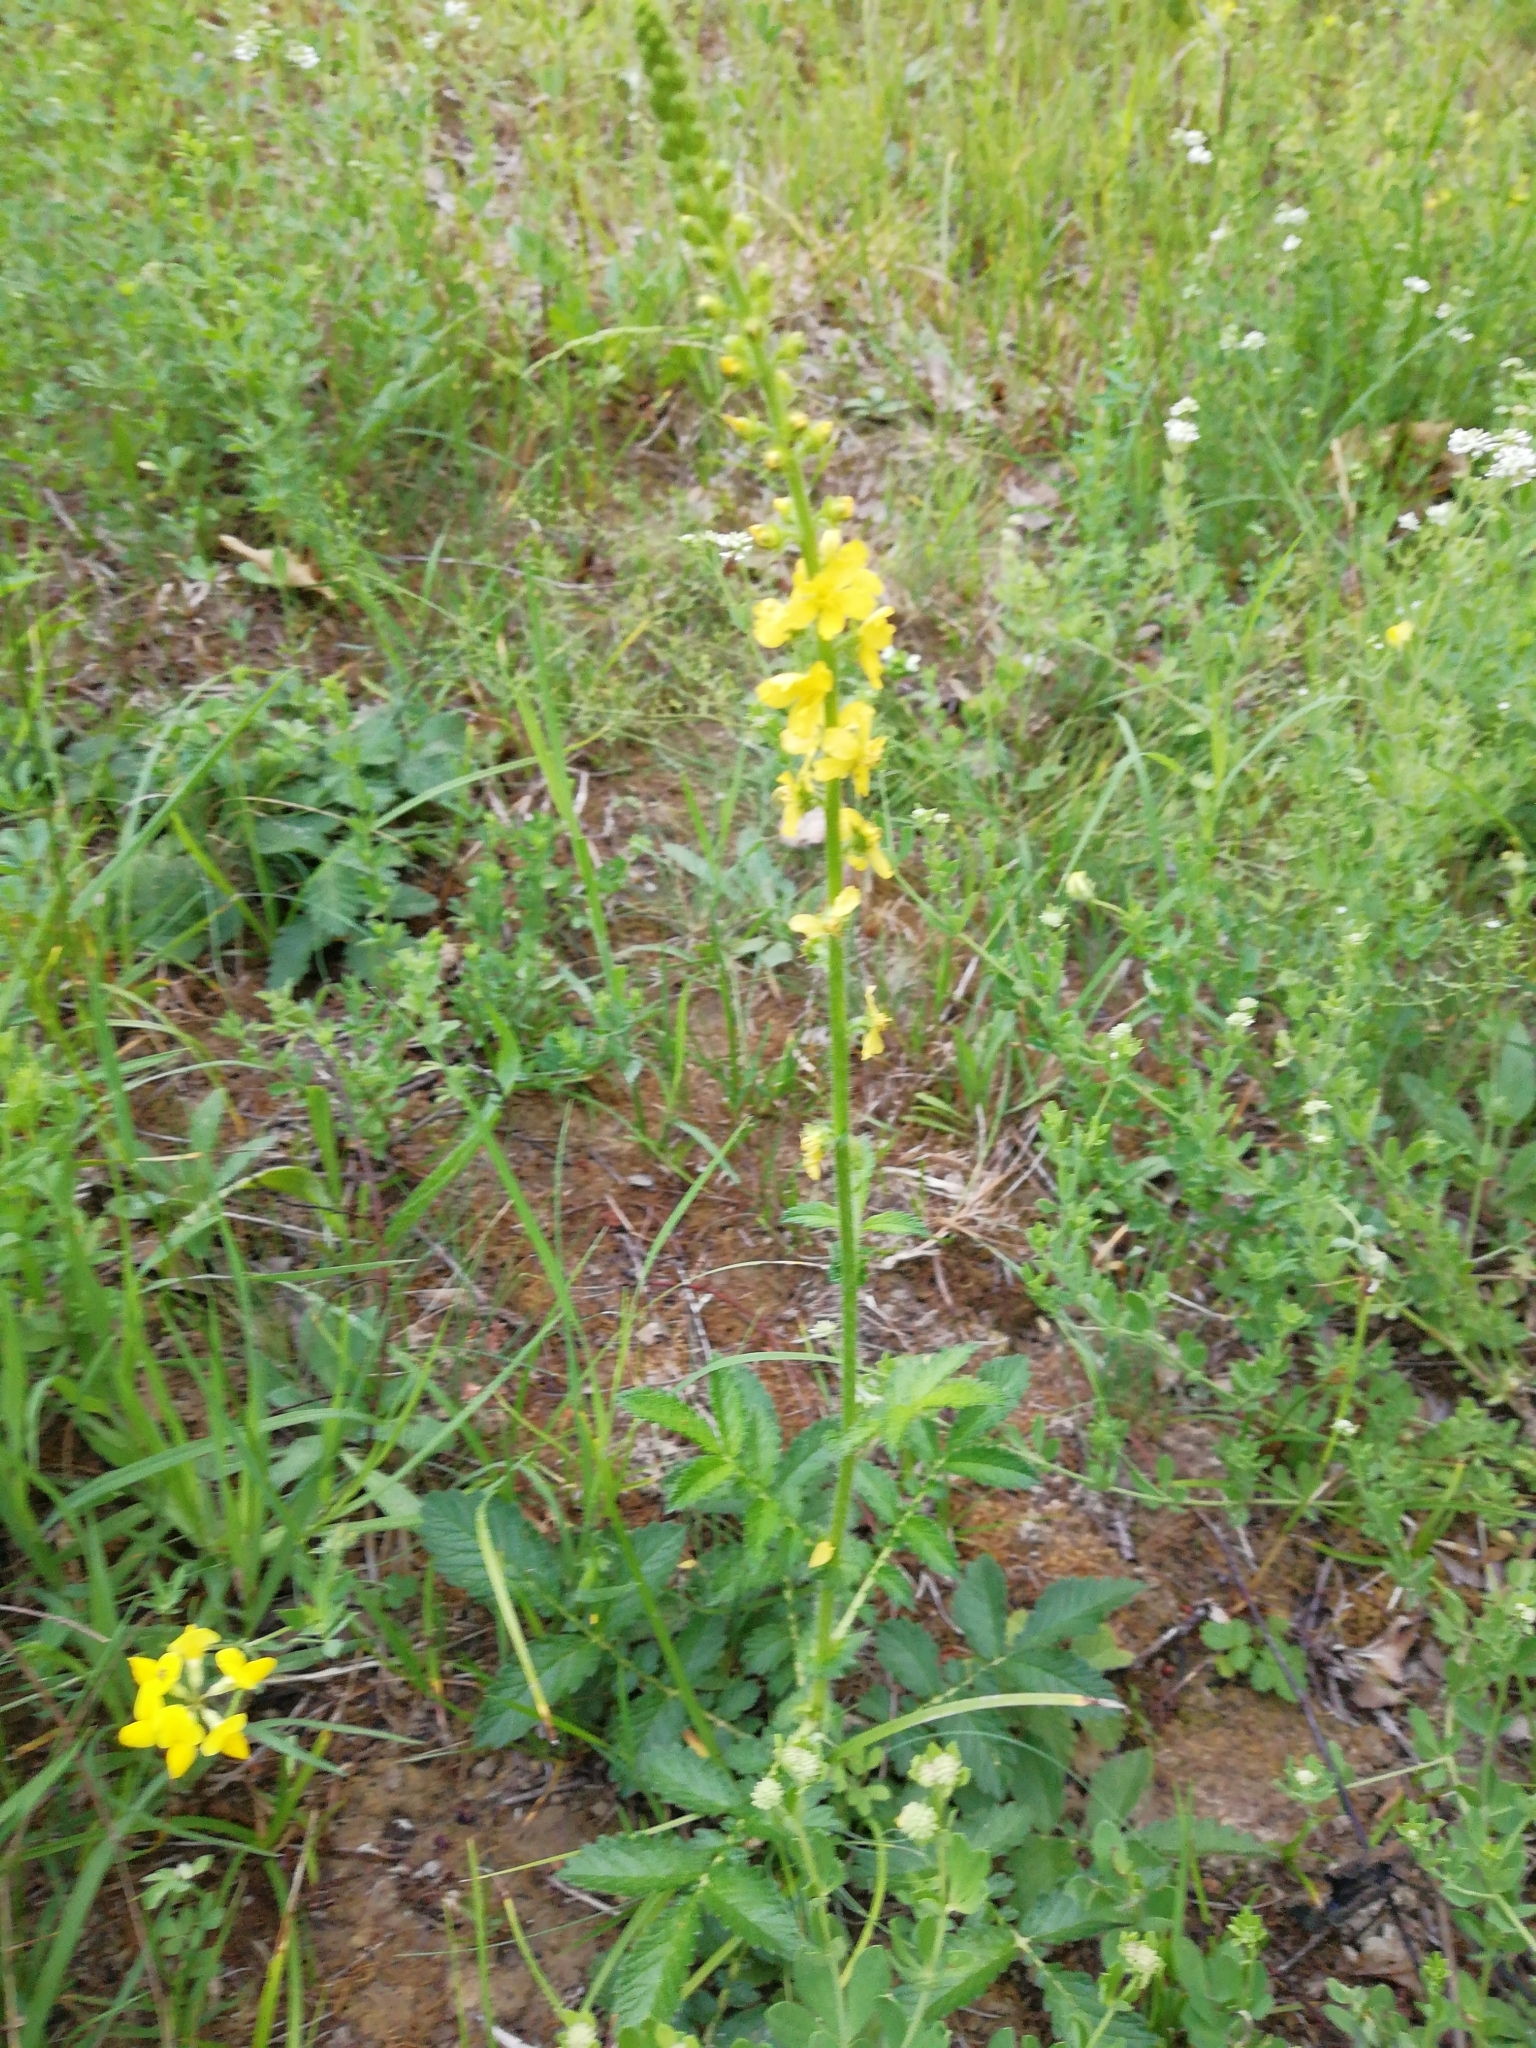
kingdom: Plantae
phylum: Tracheophyta
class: Magnoliopsida
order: Rosales
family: Rosaceae
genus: Agrimonia
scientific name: Agrimonia eupatoria
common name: Agrimony
